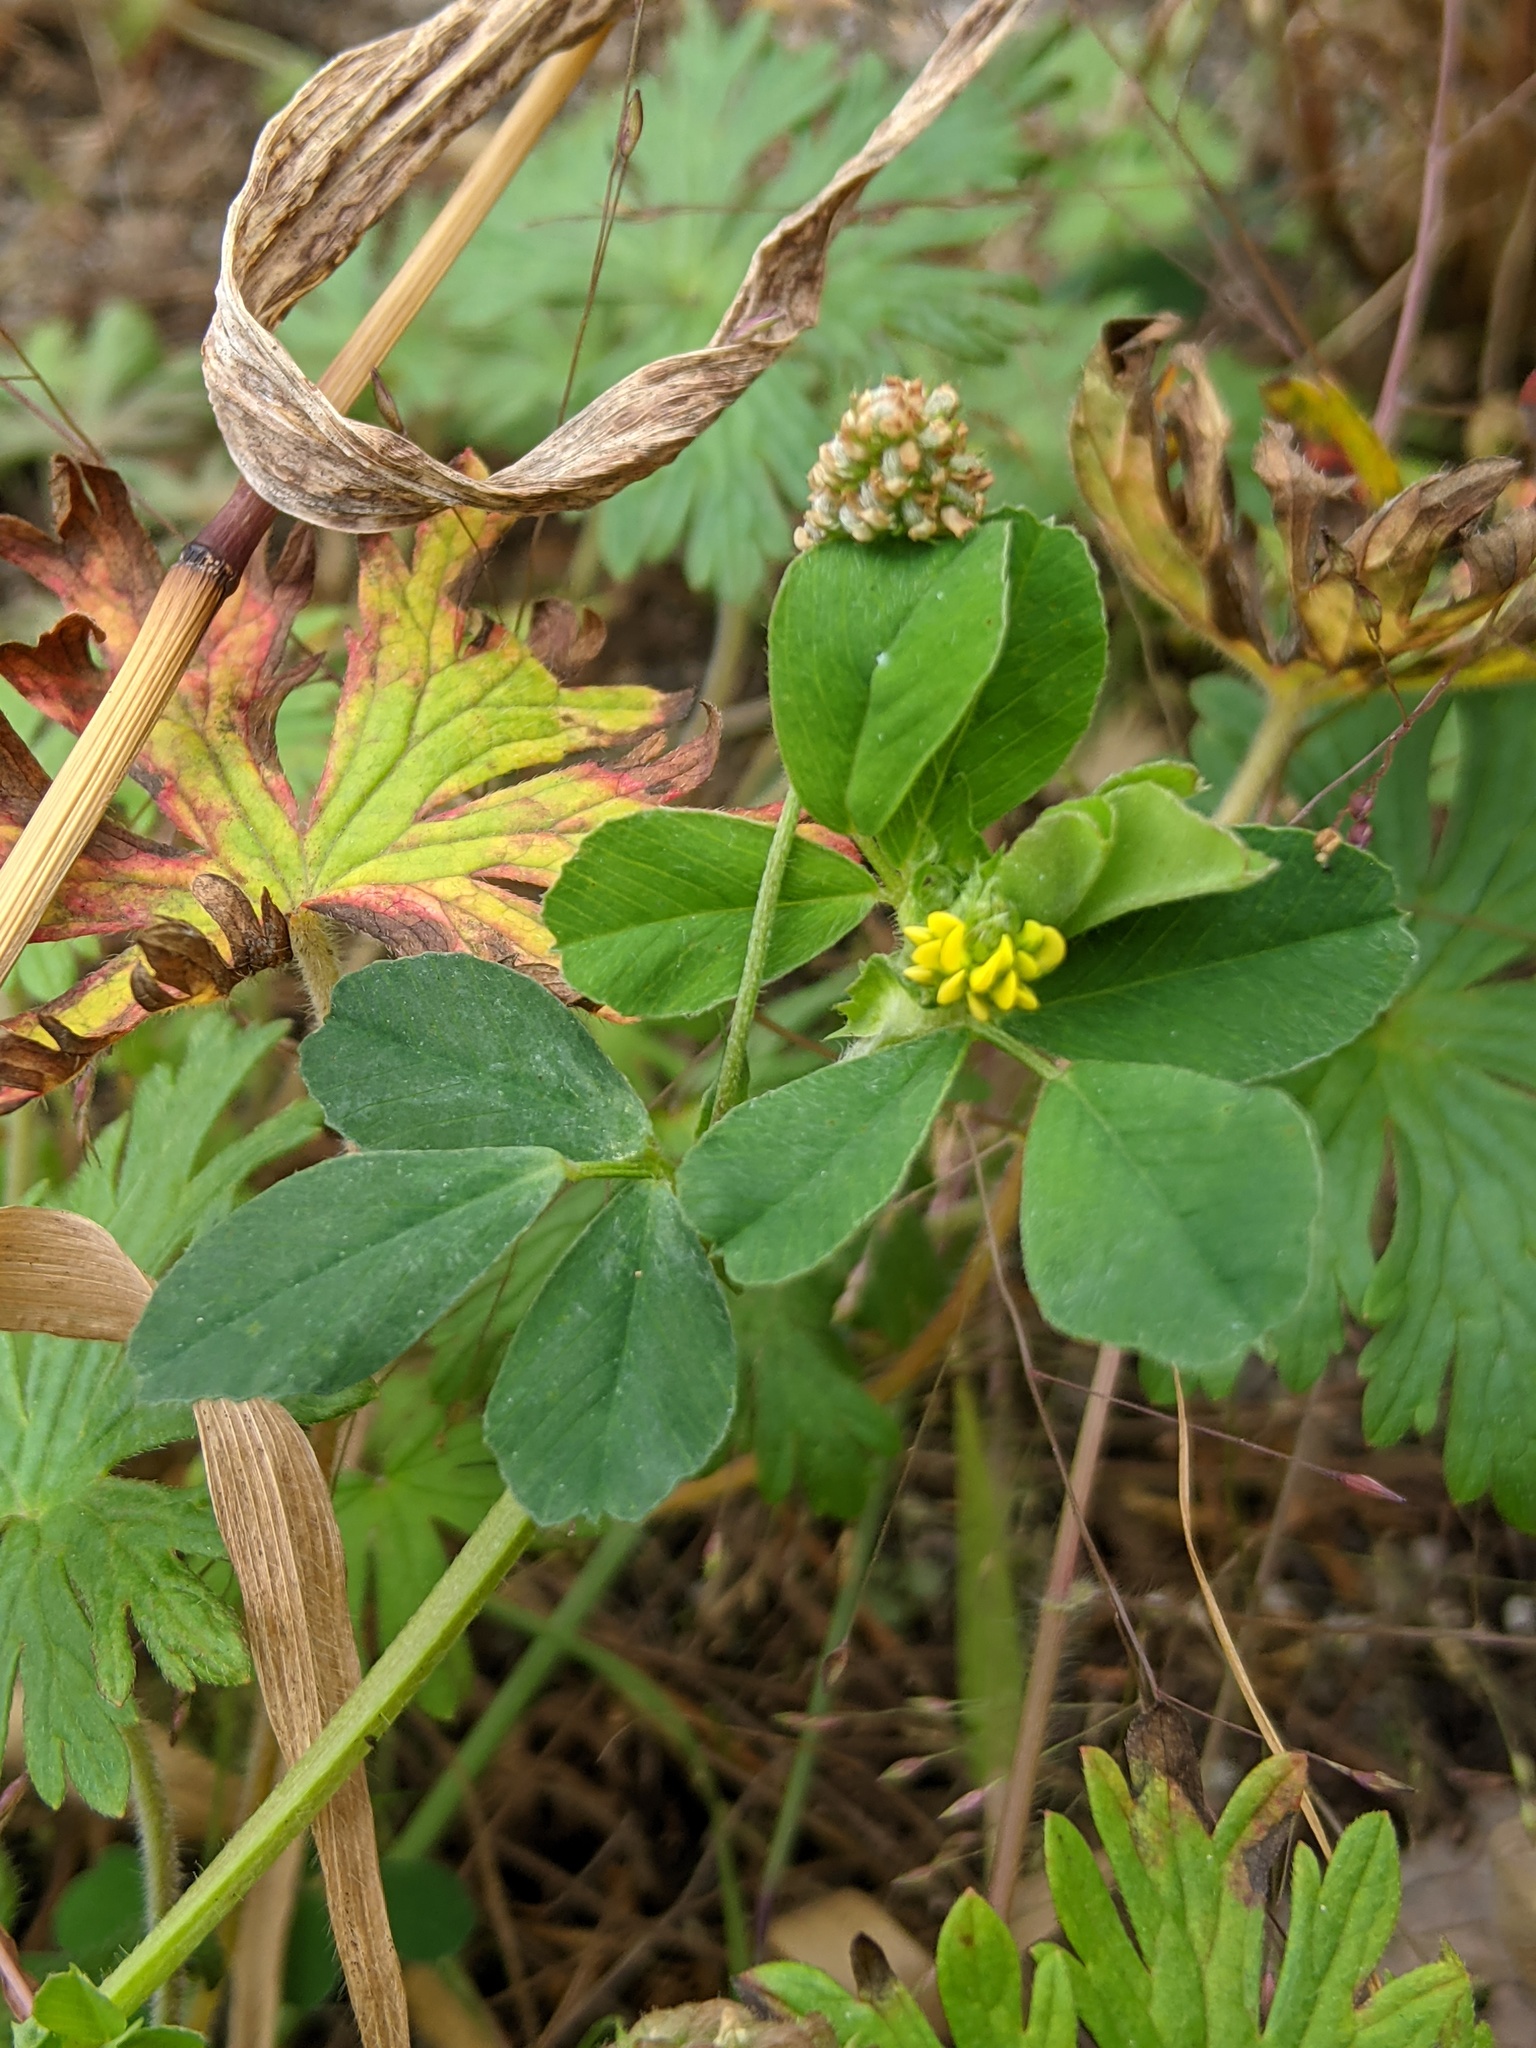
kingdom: Plantae
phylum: Tracheophyta
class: Magnoliopsida
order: Fabales
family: Fabaceae
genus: Medicago
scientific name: Medicago lupulina
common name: Black medick
